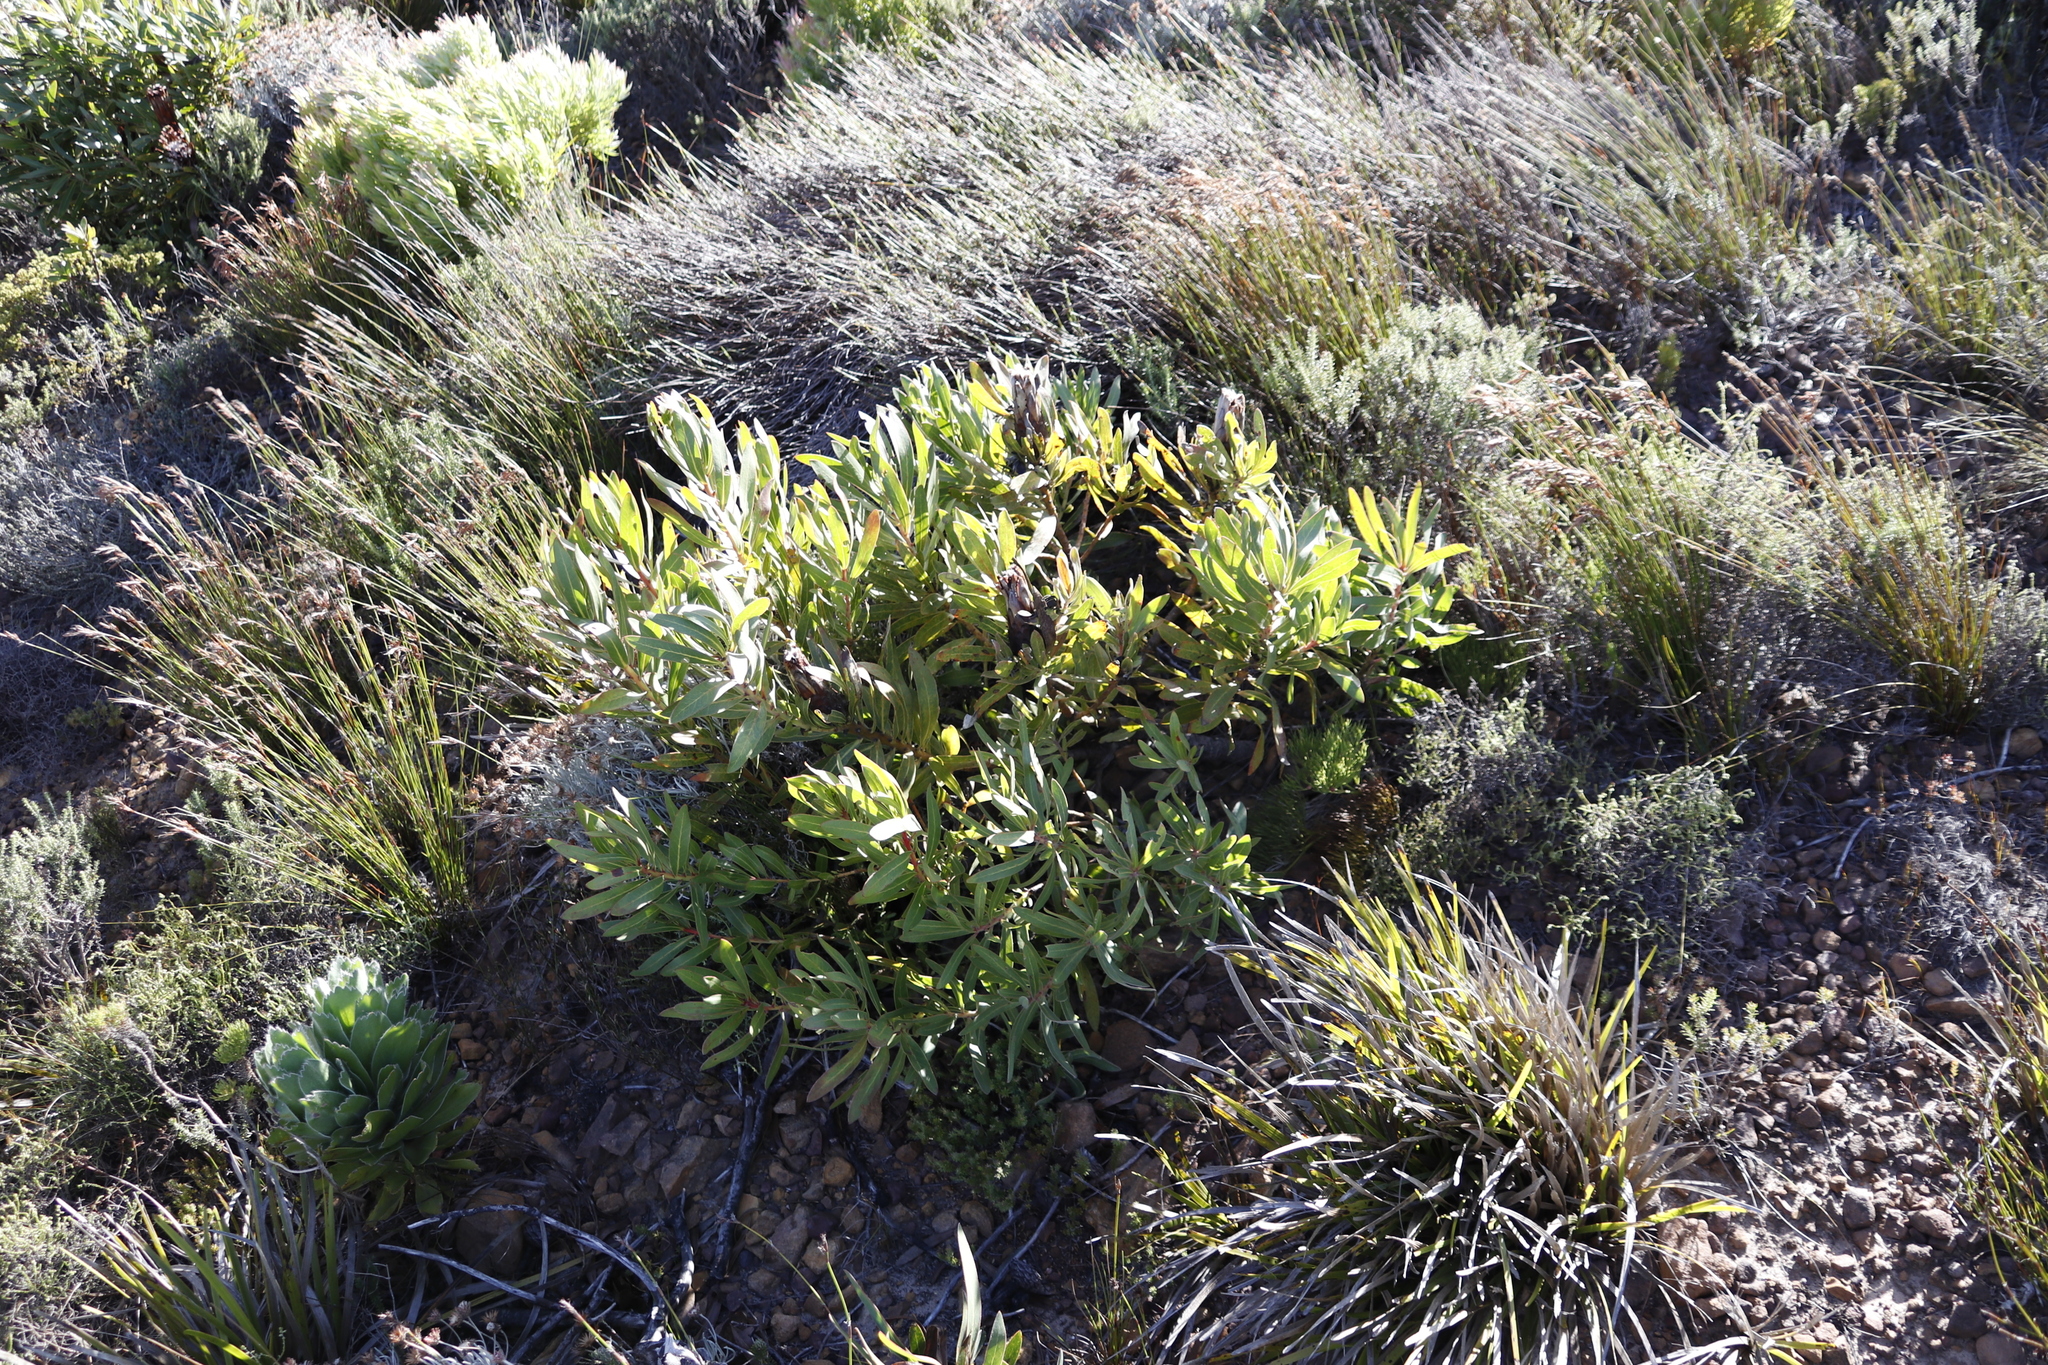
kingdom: Plantae
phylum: Tracheophyta
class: Magnoliopsida
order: Proteales
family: Proteaceae
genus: Protea
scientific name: Protea lepidocarpodendron
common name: Black-bearded protea
